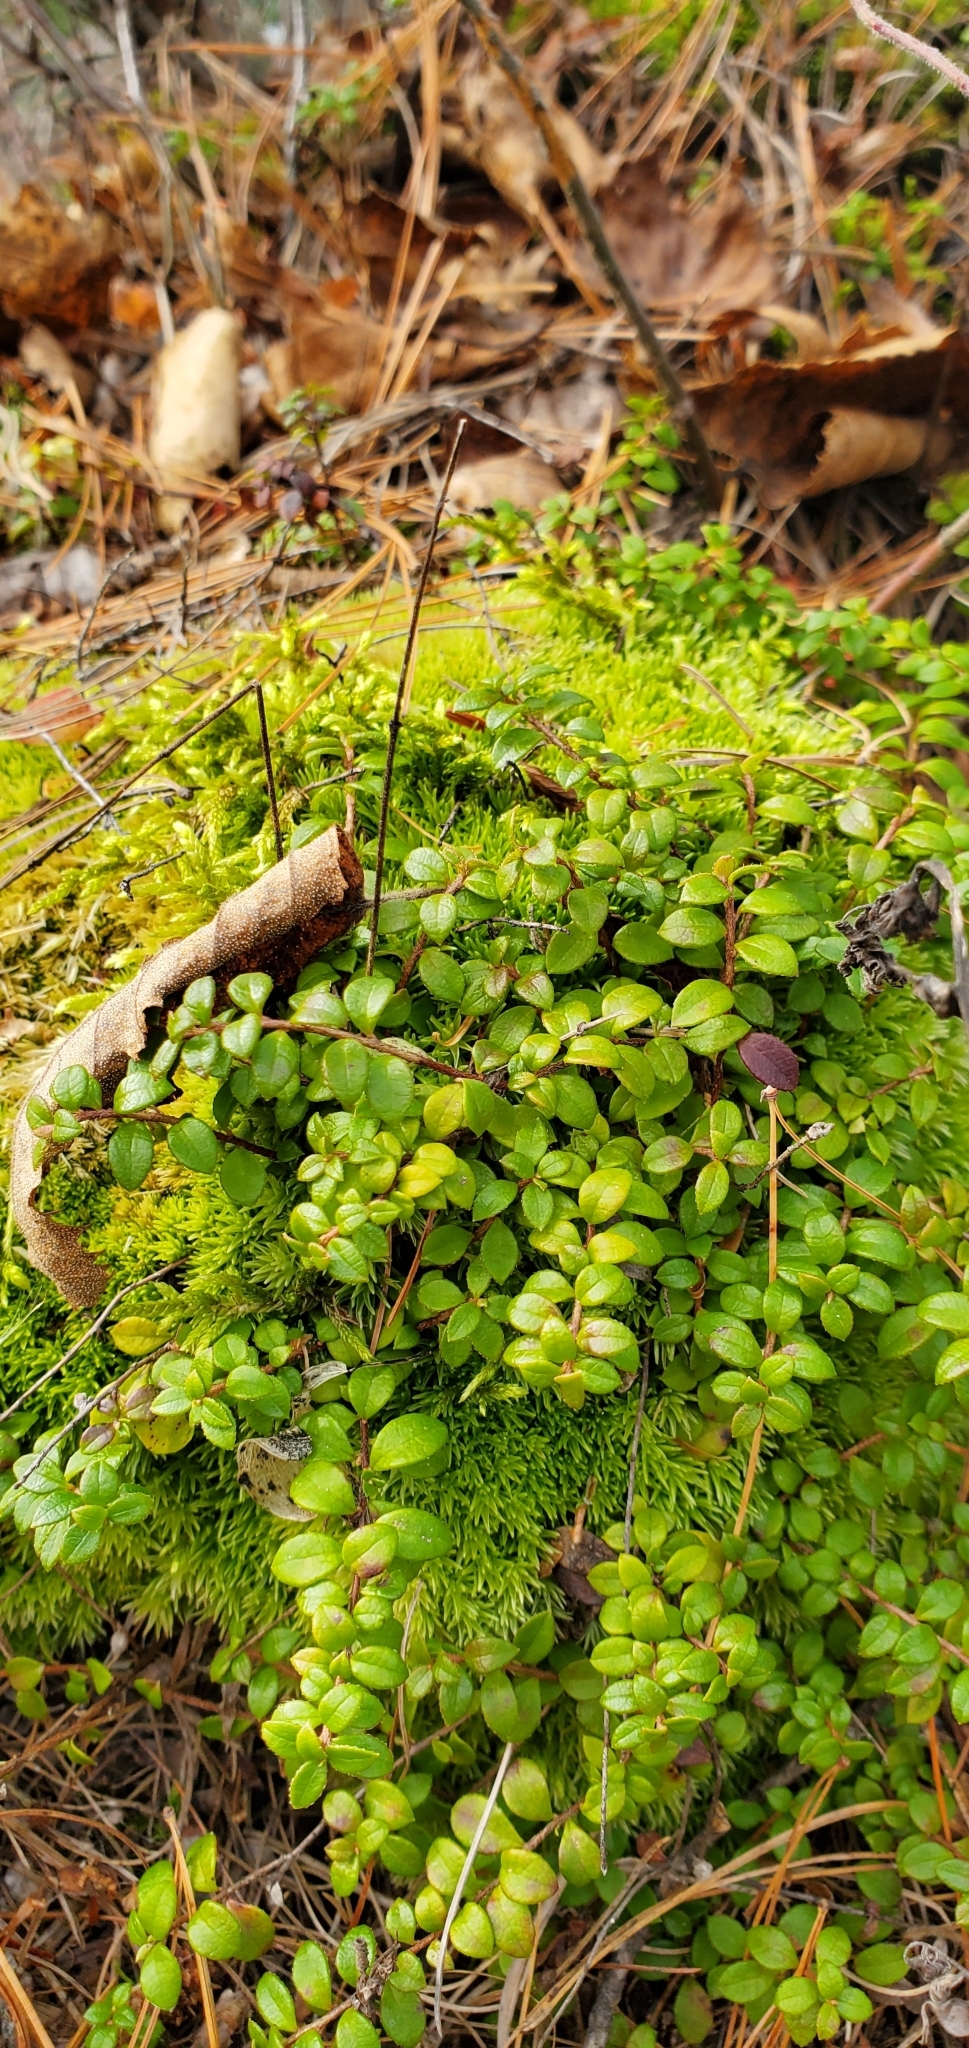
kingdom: Plantae
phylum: Tracheophyta
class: Magnoliopsida
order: Ericales
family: Ericaceae
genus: Gaultheria
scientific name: Gaultheria hispidula
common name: Cancer wintergreen
